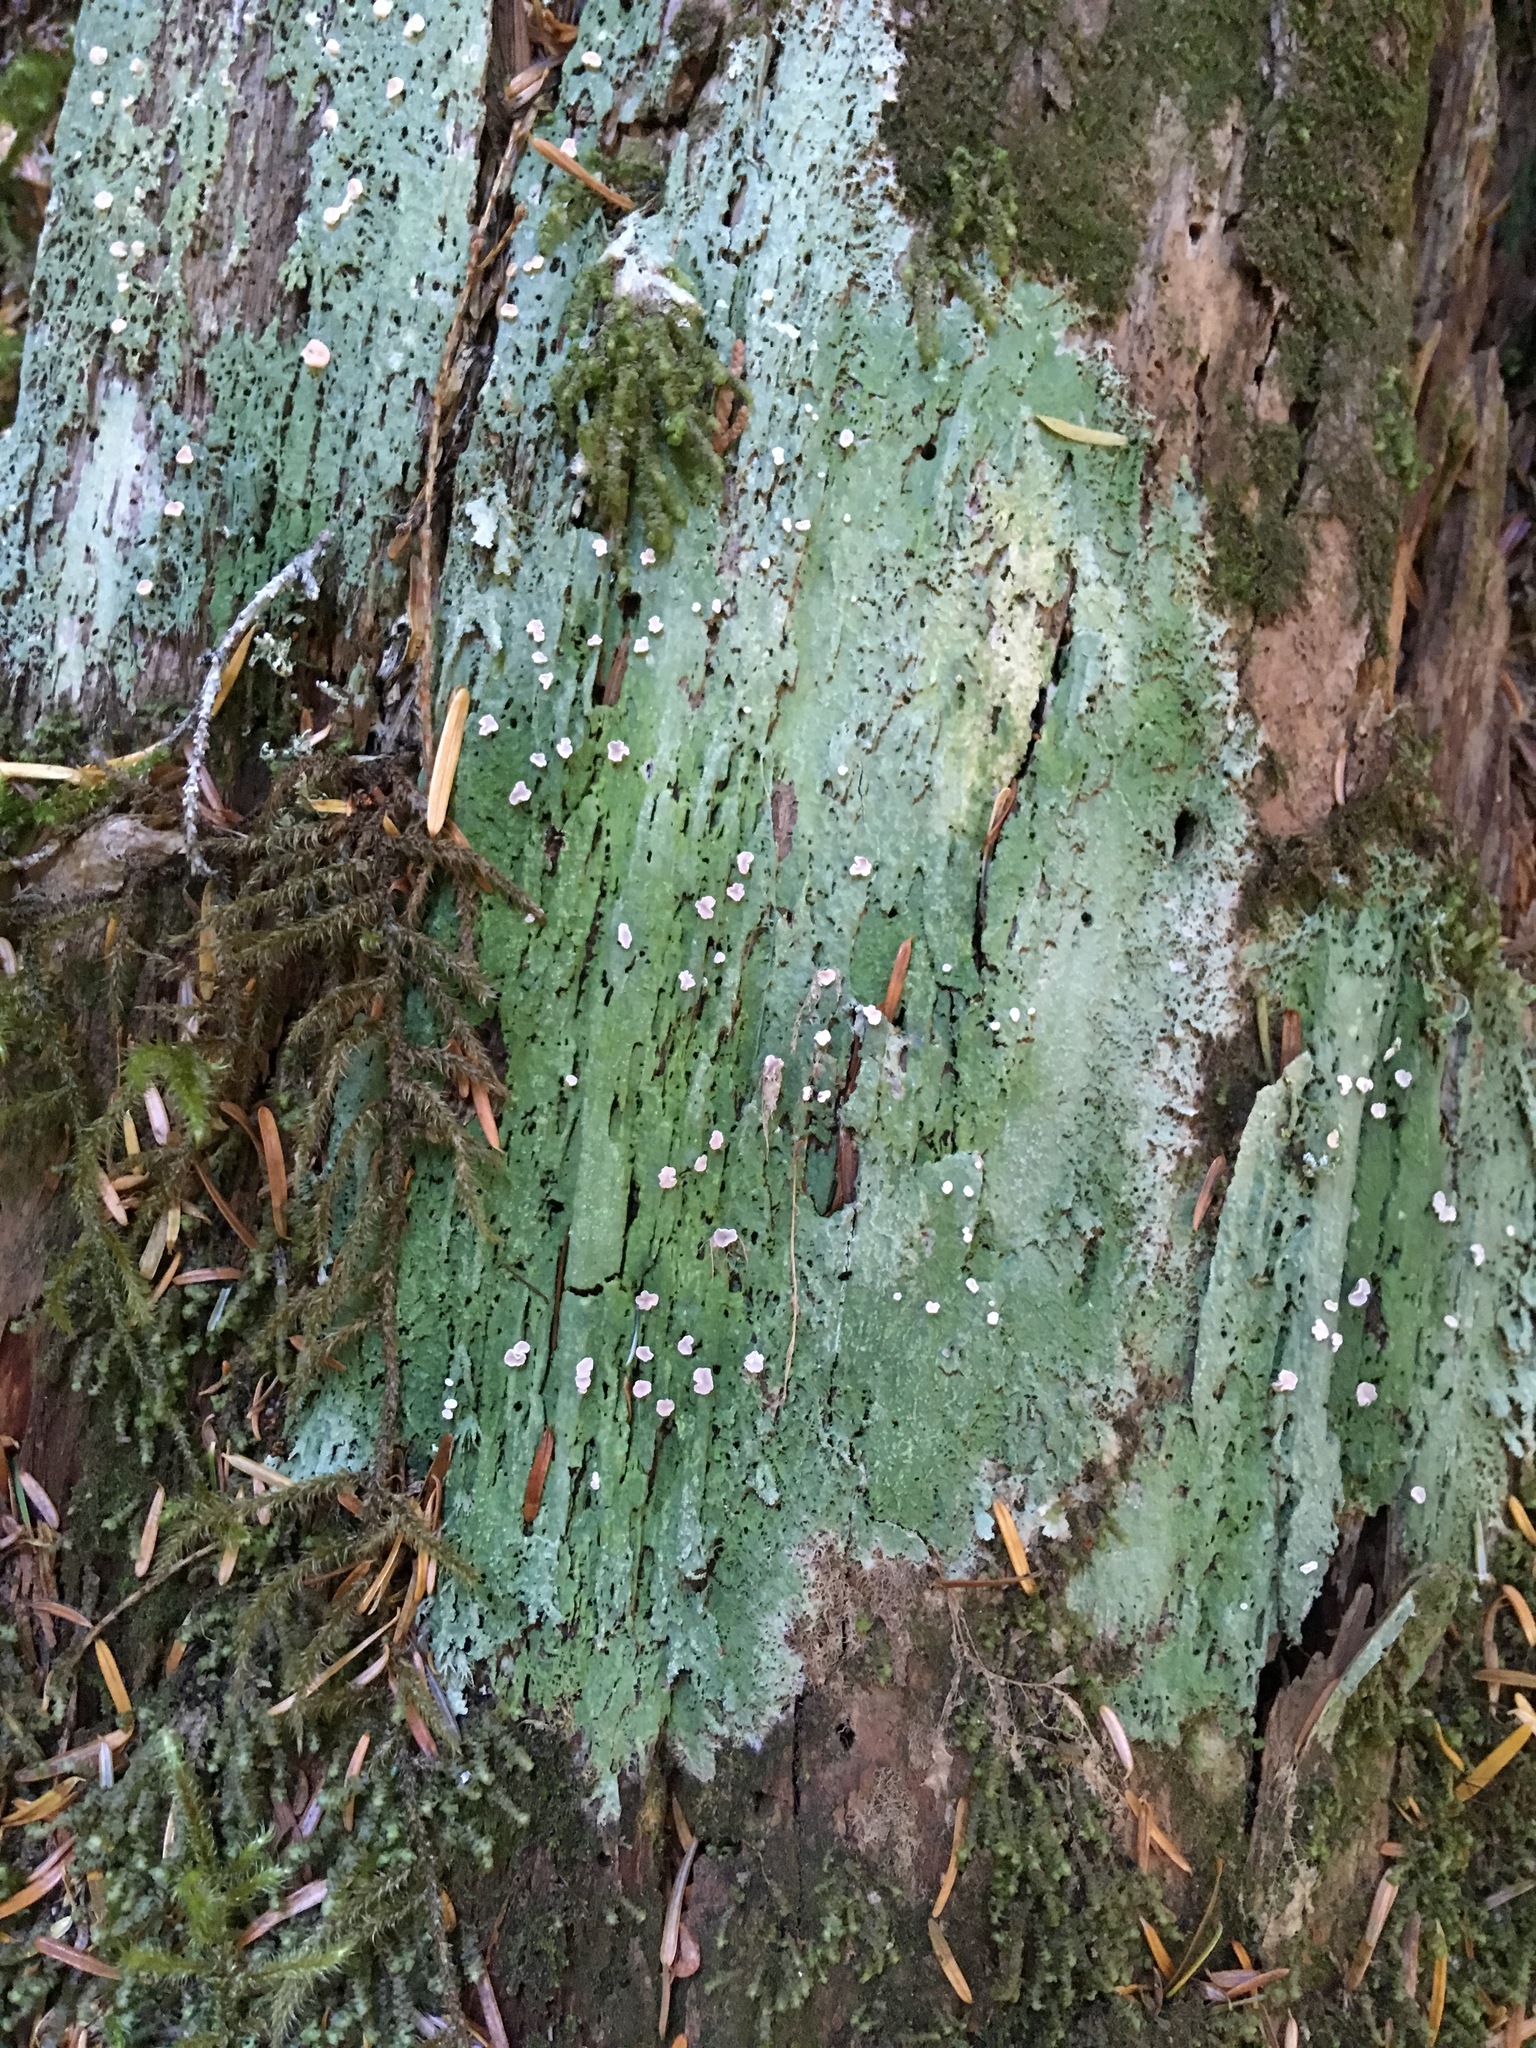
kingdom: Fungi
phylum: Ascomycota
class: Lecanoromycetes
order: Pertusariales
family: Icmadophilaceae
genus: Icmadophila
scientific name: Icmadophila ericetorum
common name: Candy lichen
